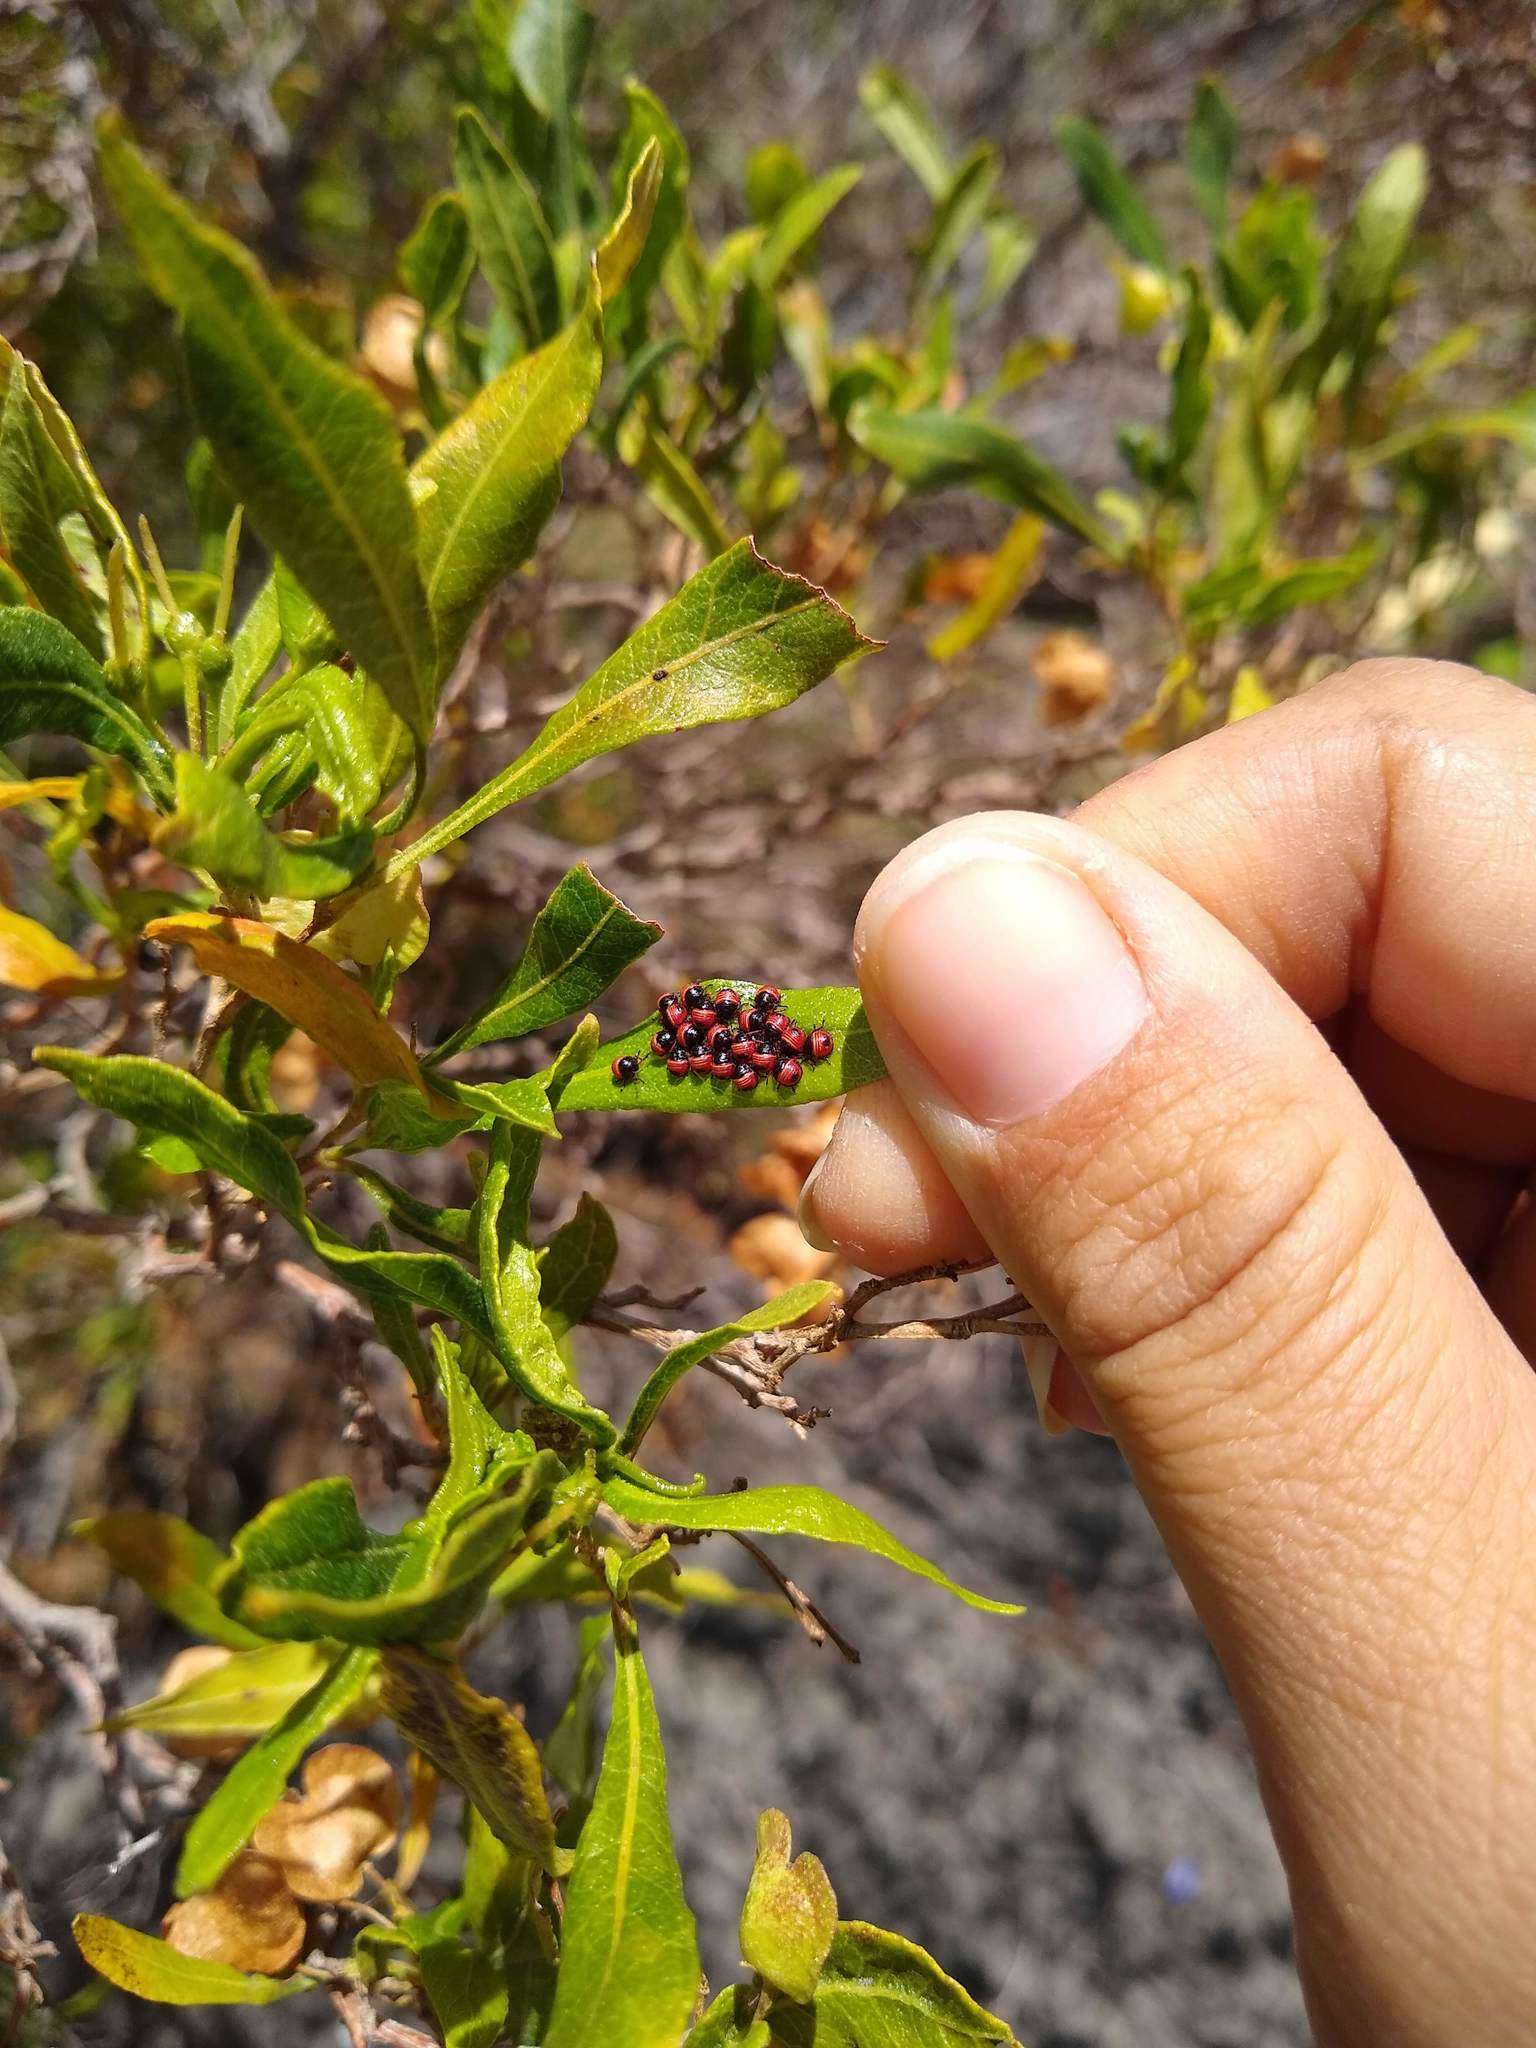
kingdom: Animalia
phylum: Arthropoda
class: Insecta
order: Hemiptera
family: Pentatomidae
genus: Coleotichus
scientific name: Coleotichus blackburniae
